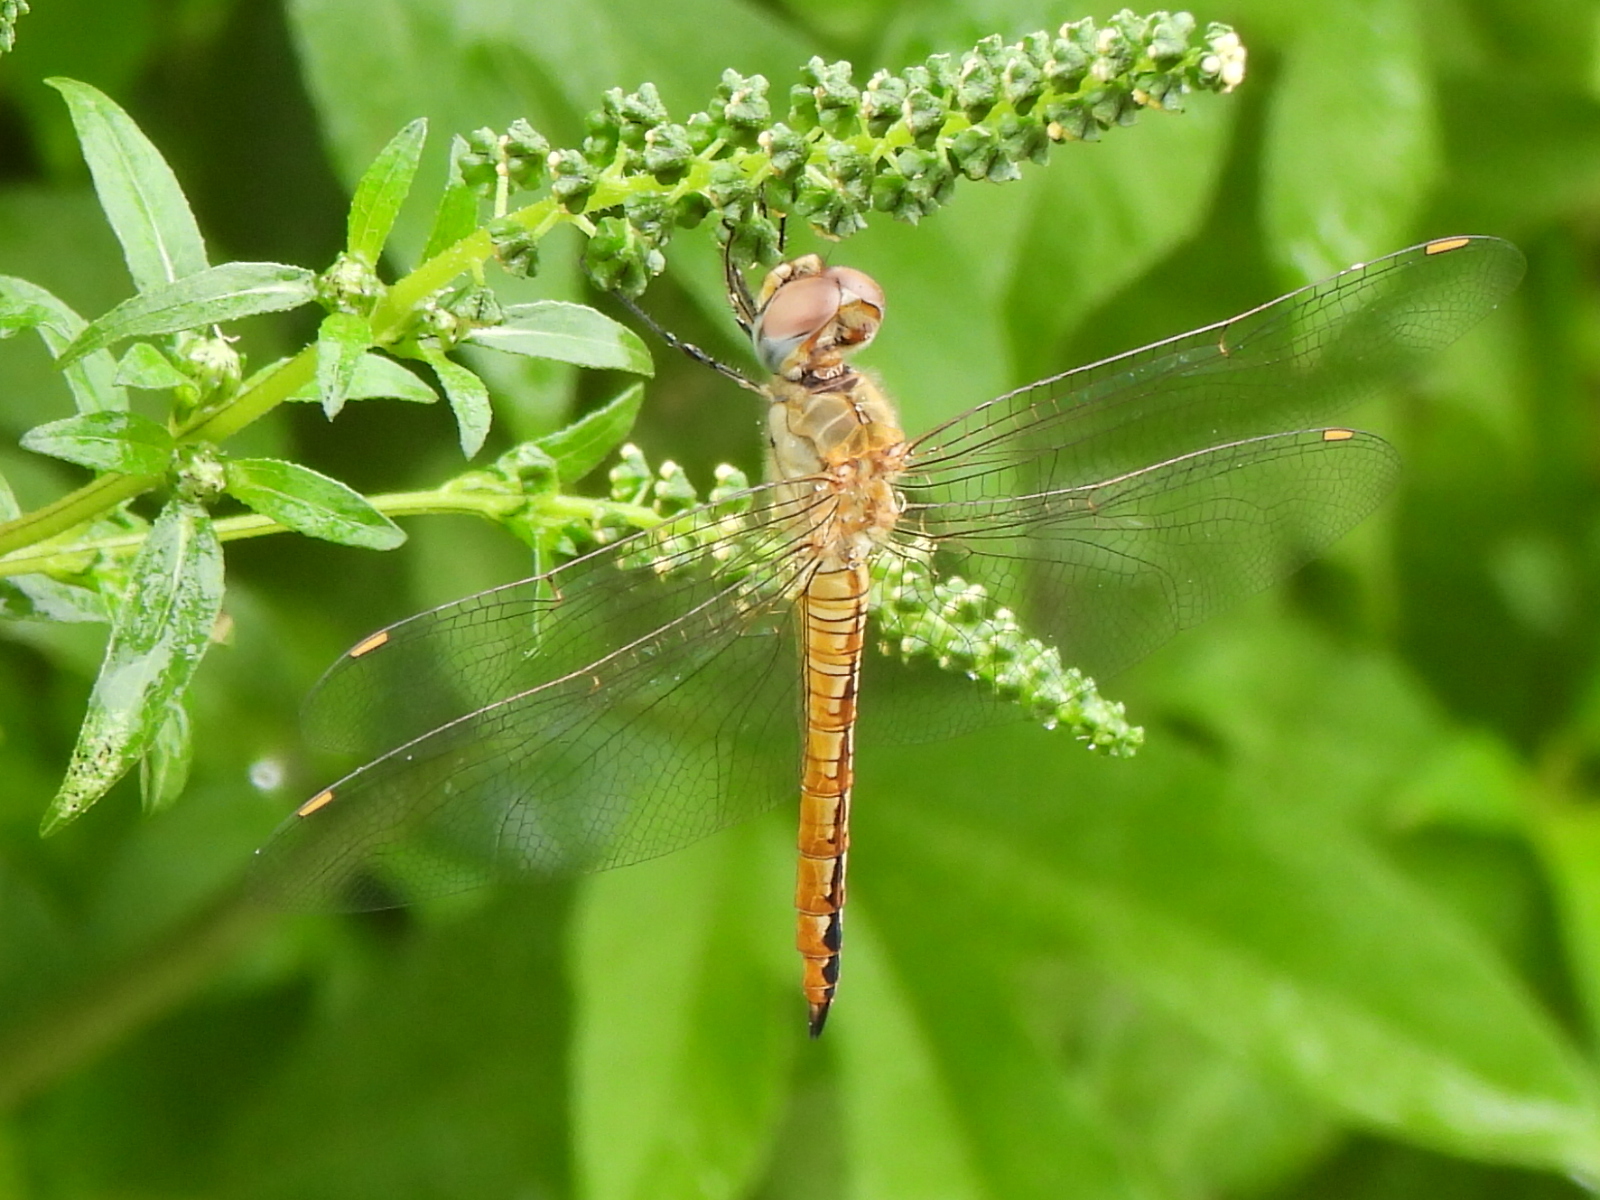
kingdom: Animalia
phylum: Arthropoda
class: Insecta
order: Odonata
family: Libellulidae
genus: Pantala
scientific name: Pantala flavescens
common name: Wandering glider
